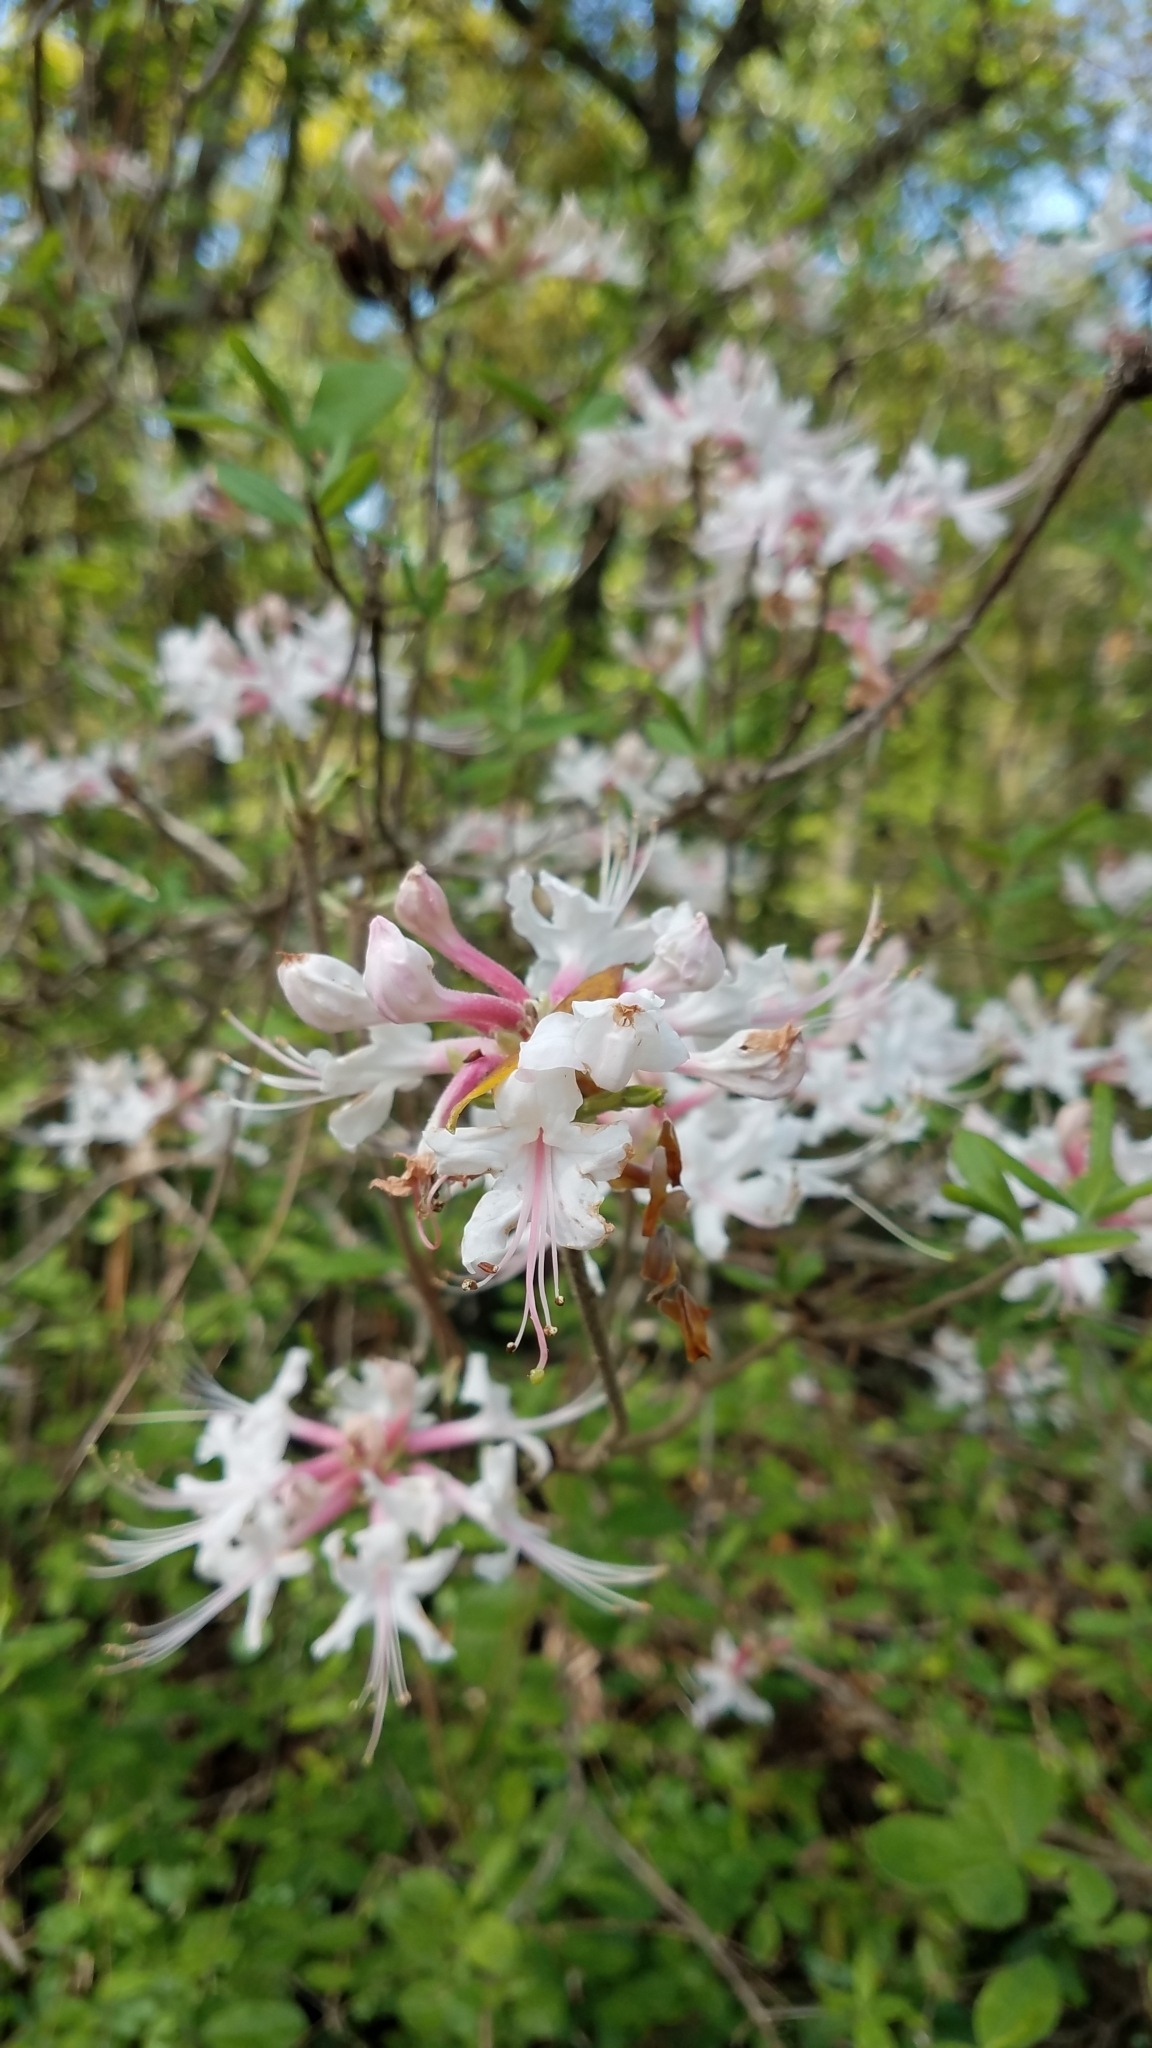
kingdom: Plantae
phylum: Tracheophyta
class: Magnoliopsida
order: Ericales
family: Ericaceae
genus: Rhododendron
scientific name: Rhododendron canescens
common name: Mountain azalea
